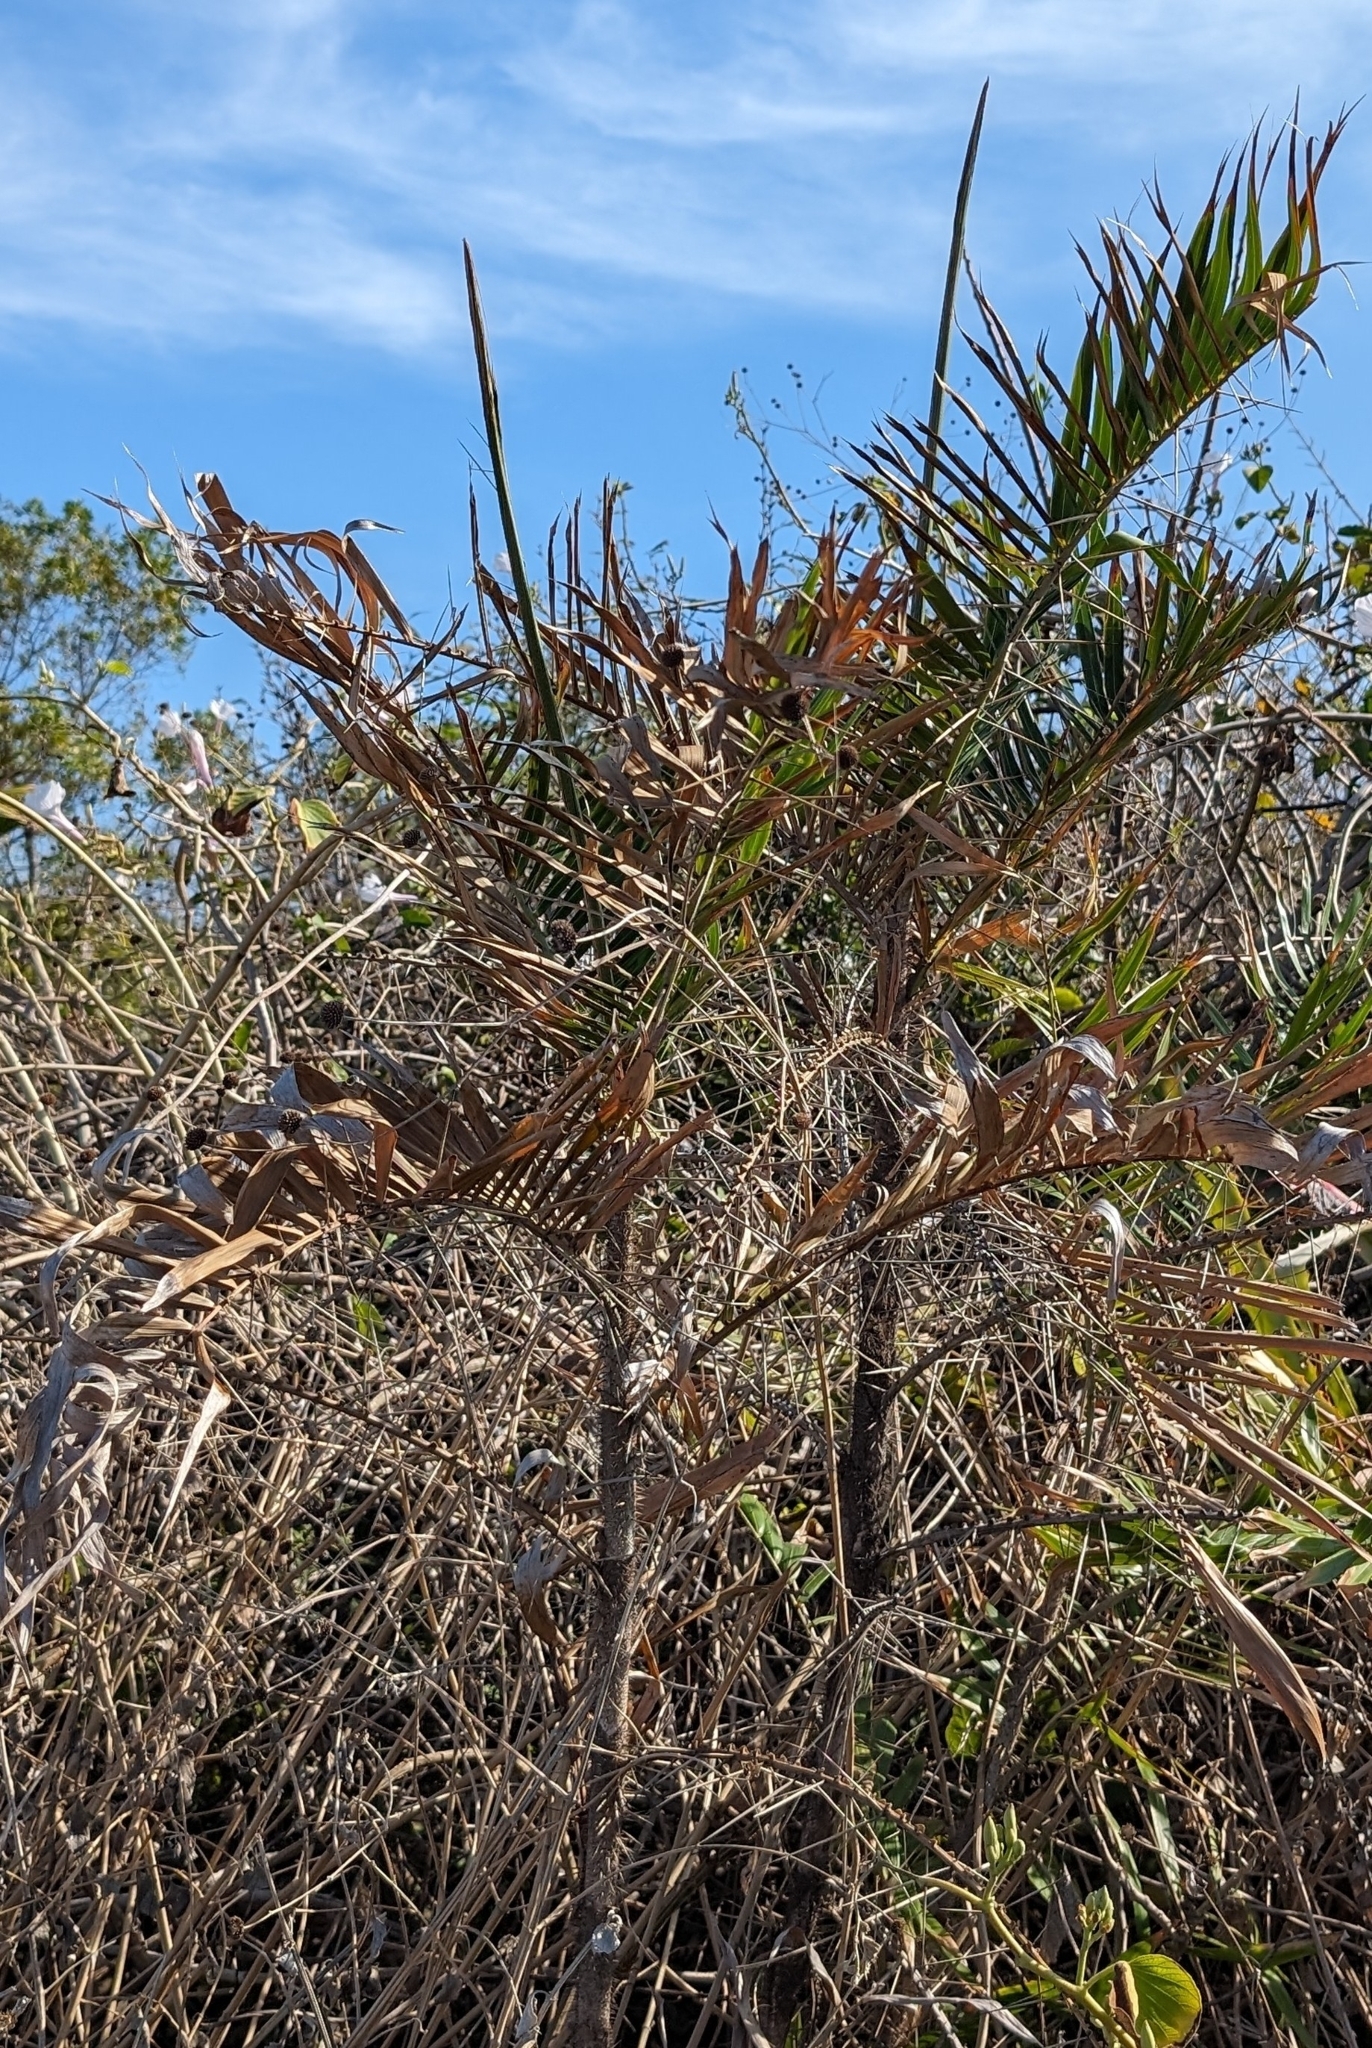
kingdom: Plantae
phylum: Tracheophyta
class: Liliopsida
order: Arecales
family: Arecaceae
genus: Bactris
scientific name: Bactris major
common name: Beach palm
